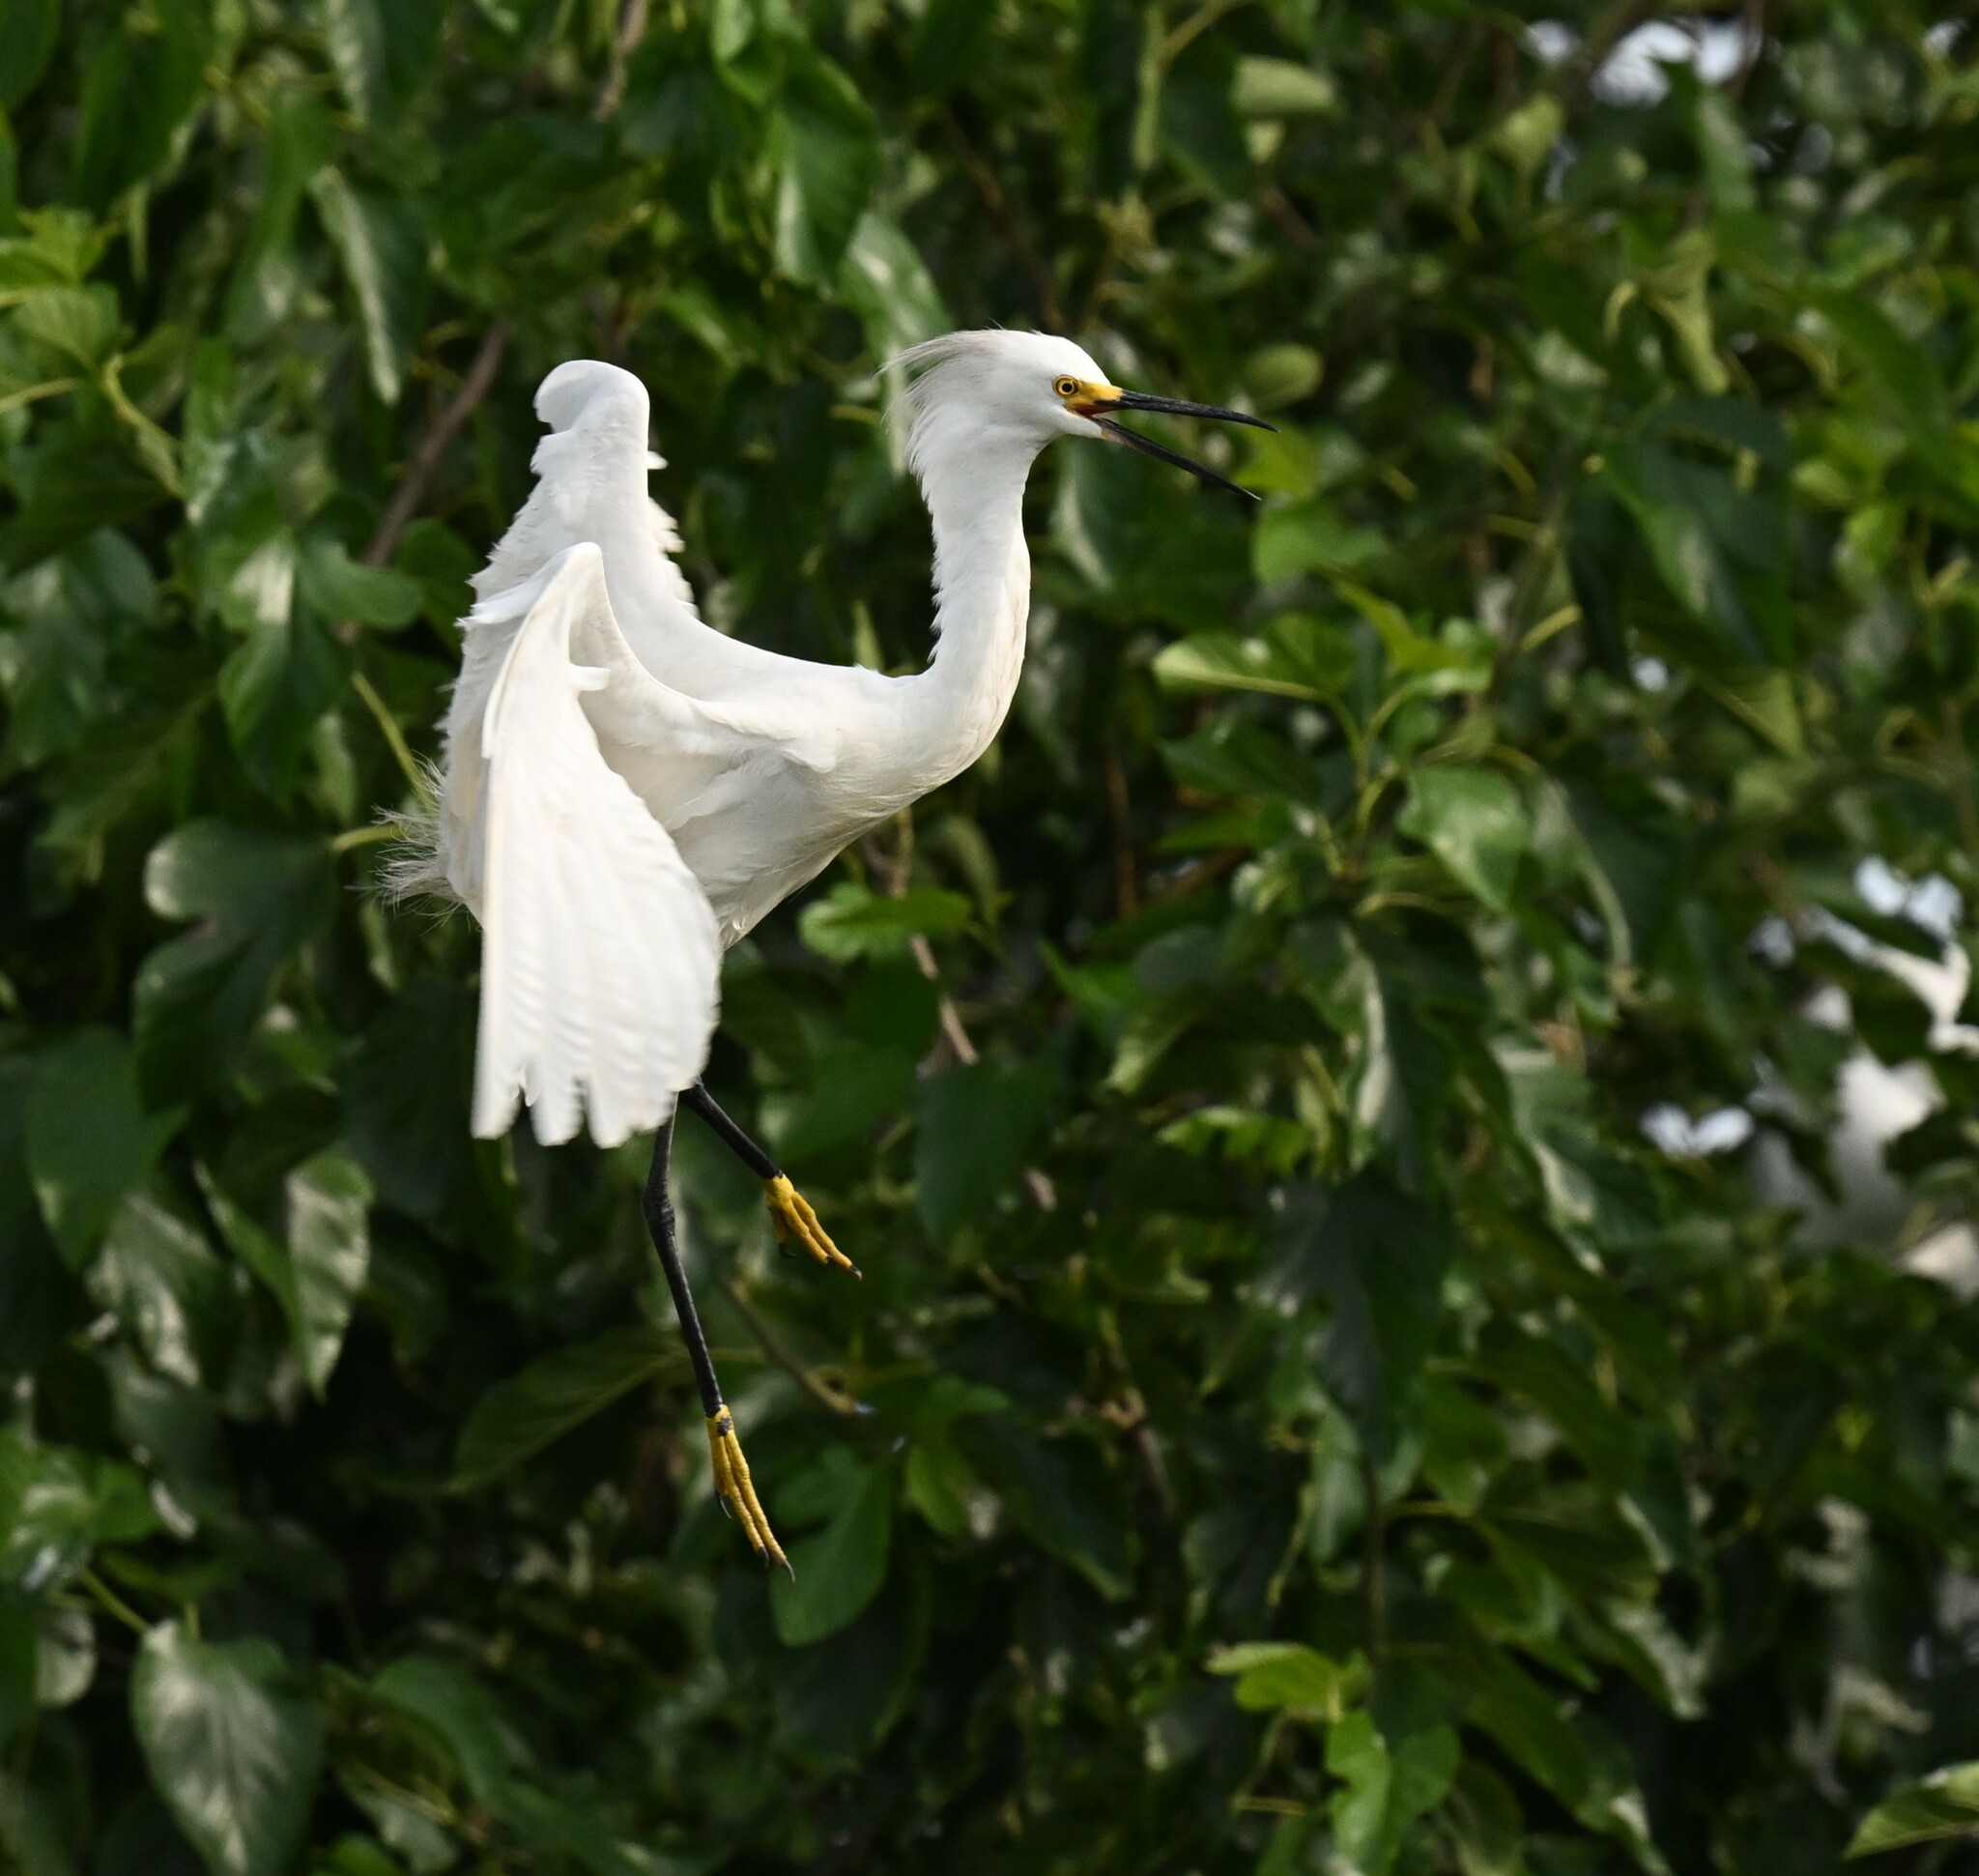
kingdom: Animalia
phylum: Chordata
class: Aves
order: Pelecaniformes
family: Ardeidae
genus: Egretta
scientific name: Egretta thula
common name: Snowy egret
